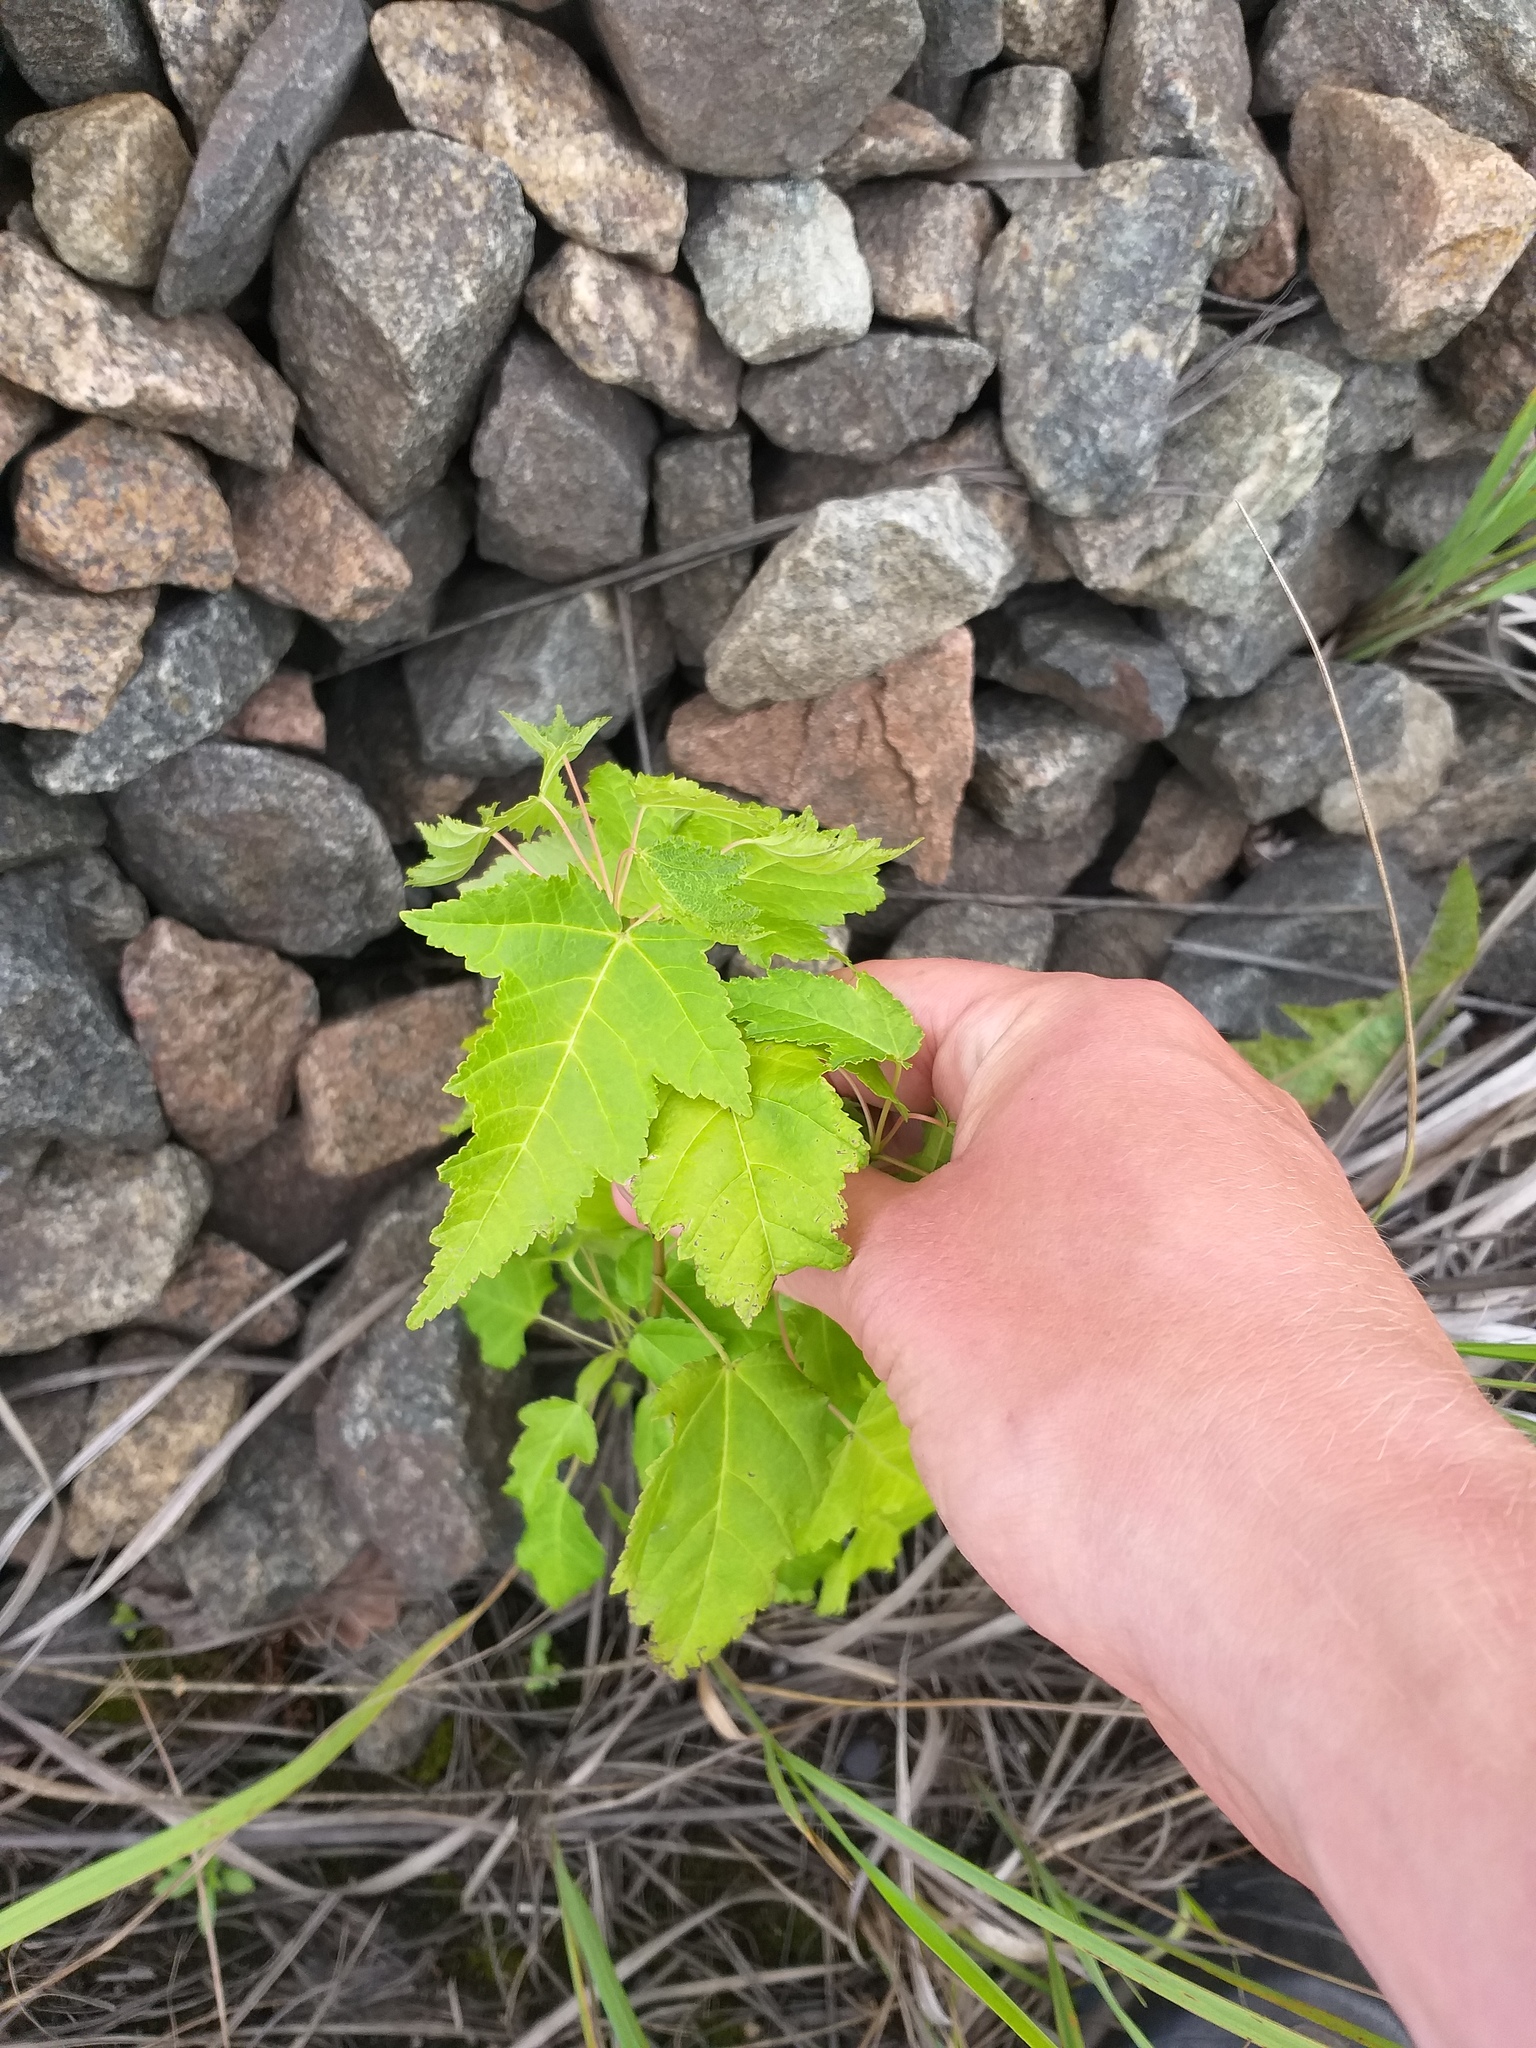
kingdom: Plantae
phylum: Tracheophyta
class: Magnoliopsida
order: Sapindales
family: Sapindaceae
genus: Acer
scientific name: Acer tataricum
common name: Tartar maple
